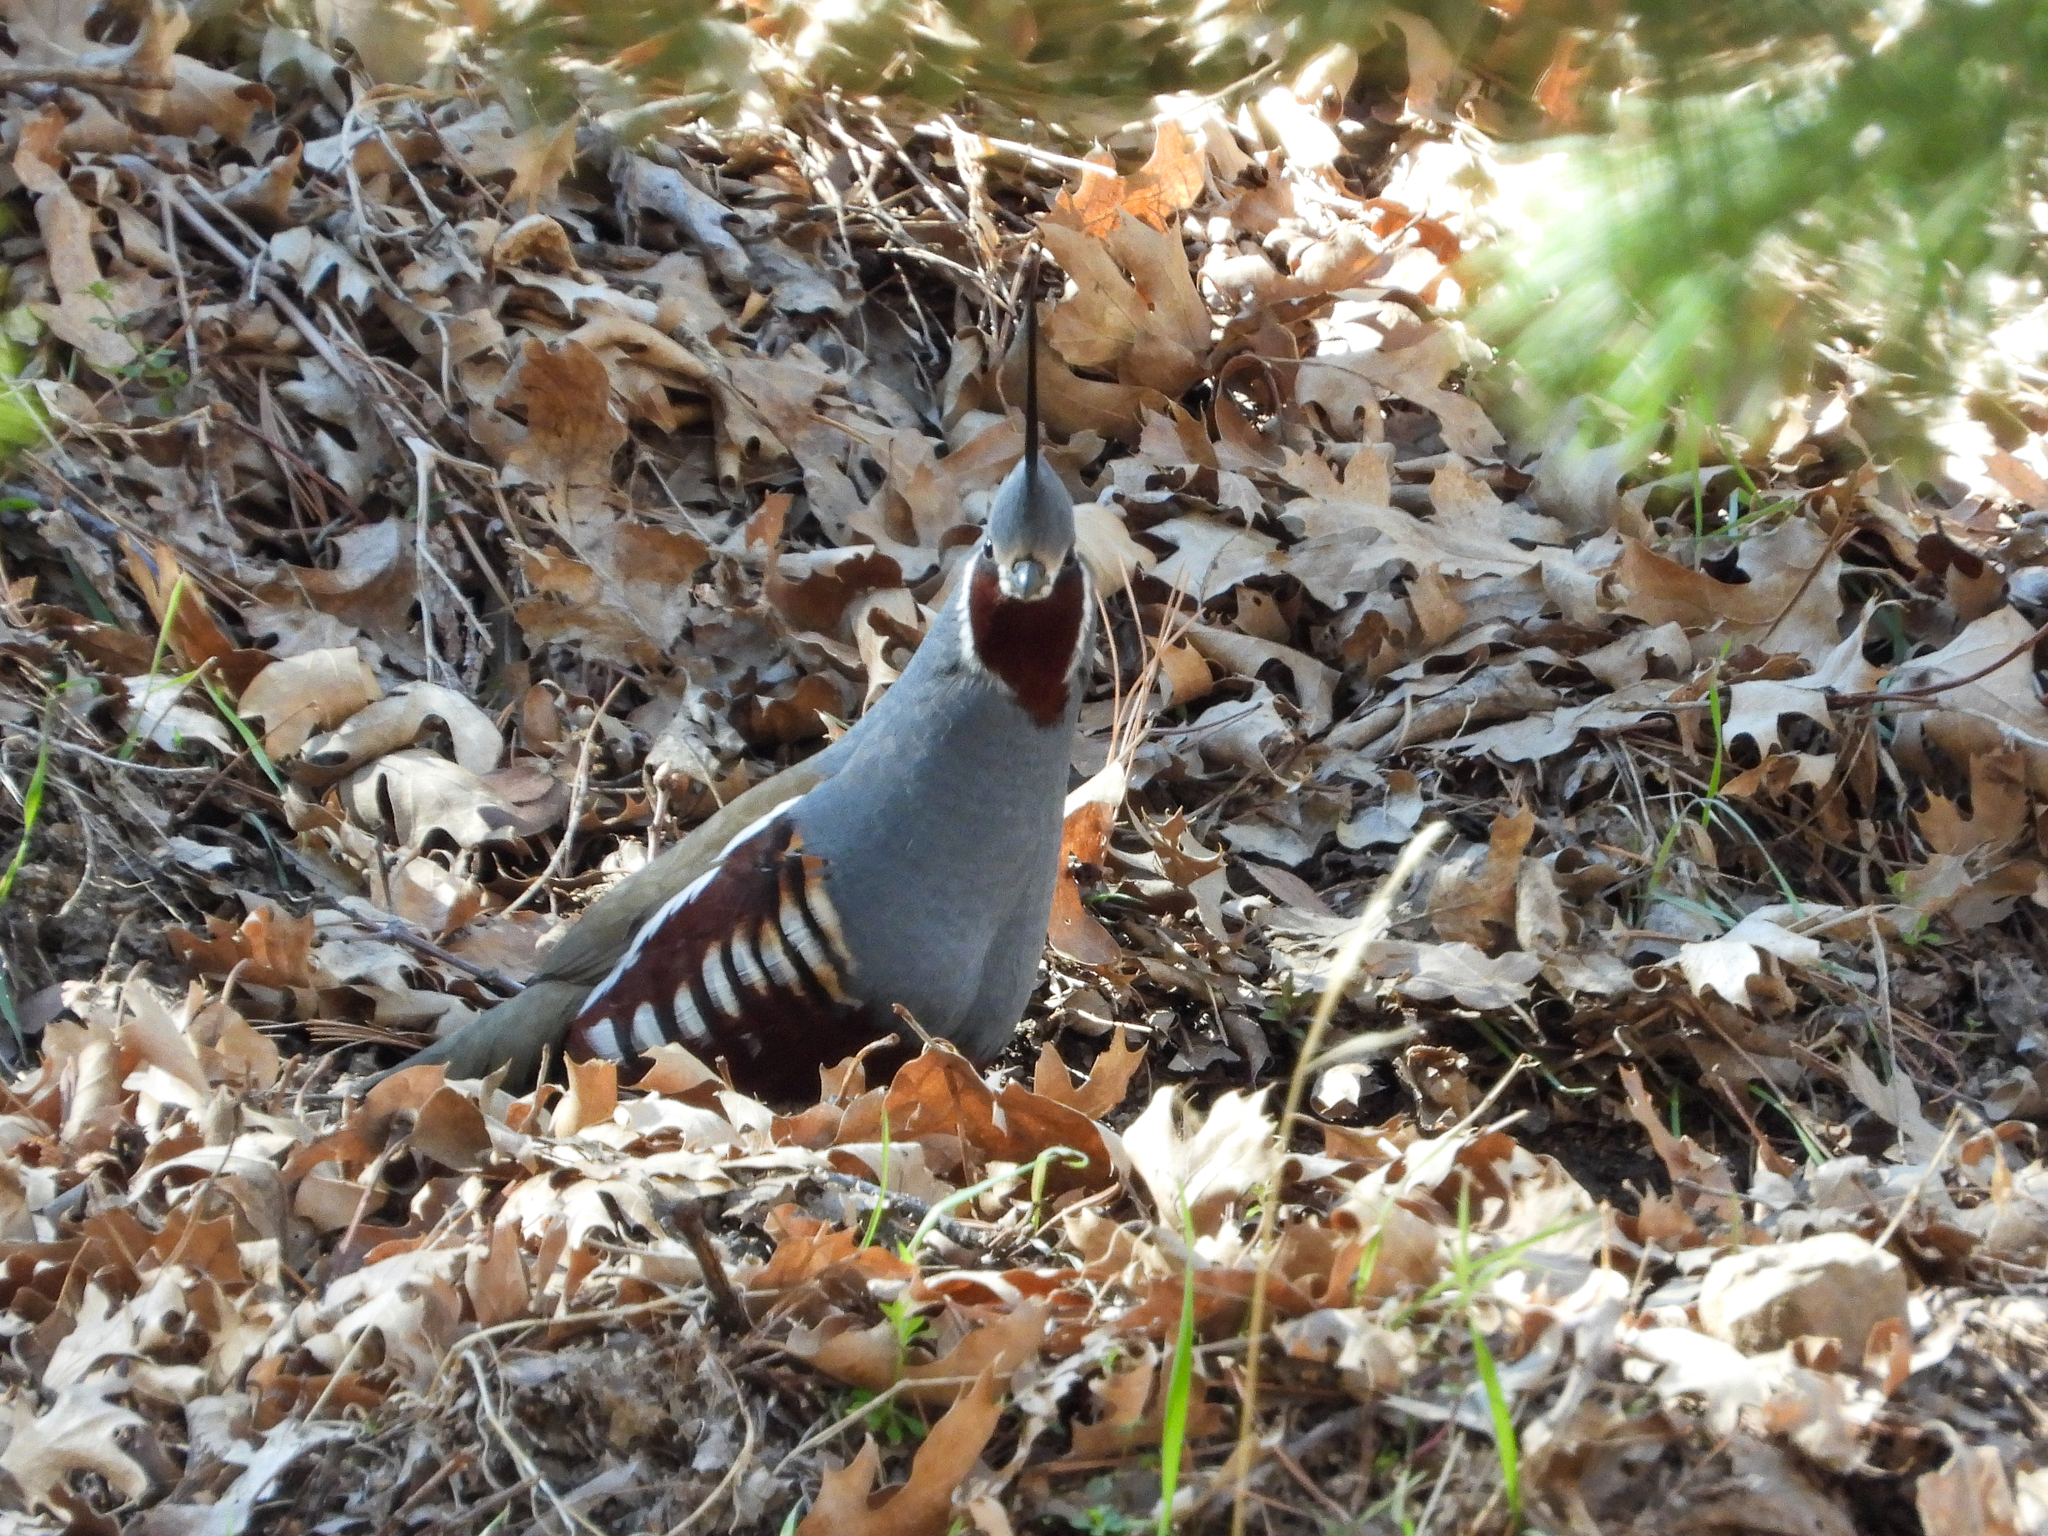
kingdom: Animalia
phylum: Chordata
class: Aves
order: Galliformes
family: Odontophoridae
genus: Oreortyx
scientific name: Oreortyx pictus
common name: Mountain quail
